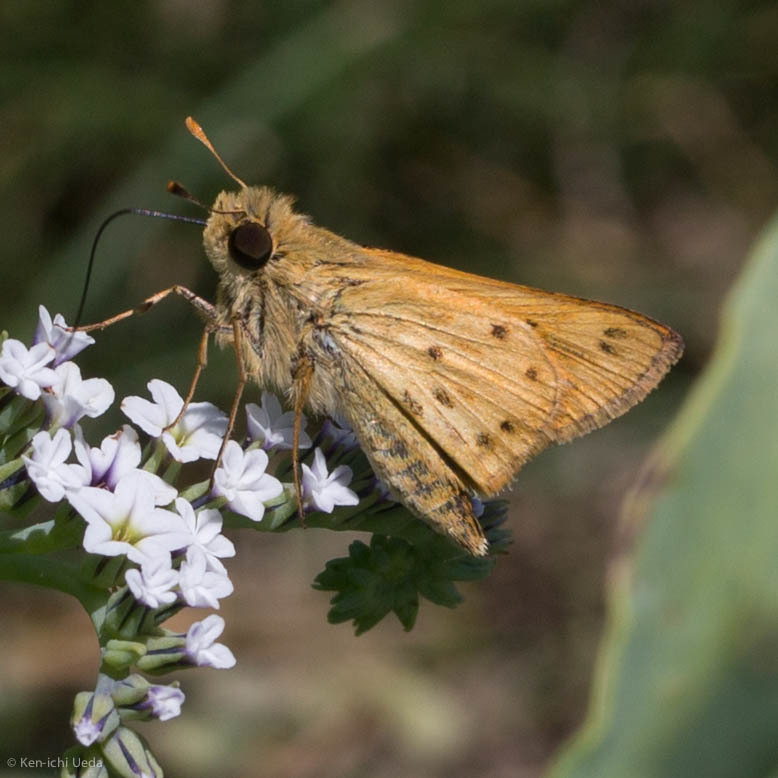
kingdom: Animalia
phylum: Arthropoda
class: Insecta
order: Lepidoptera
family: Hesperiidae
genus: Hylephila
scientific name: Hylephila phyleus
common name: Fiery skipper
